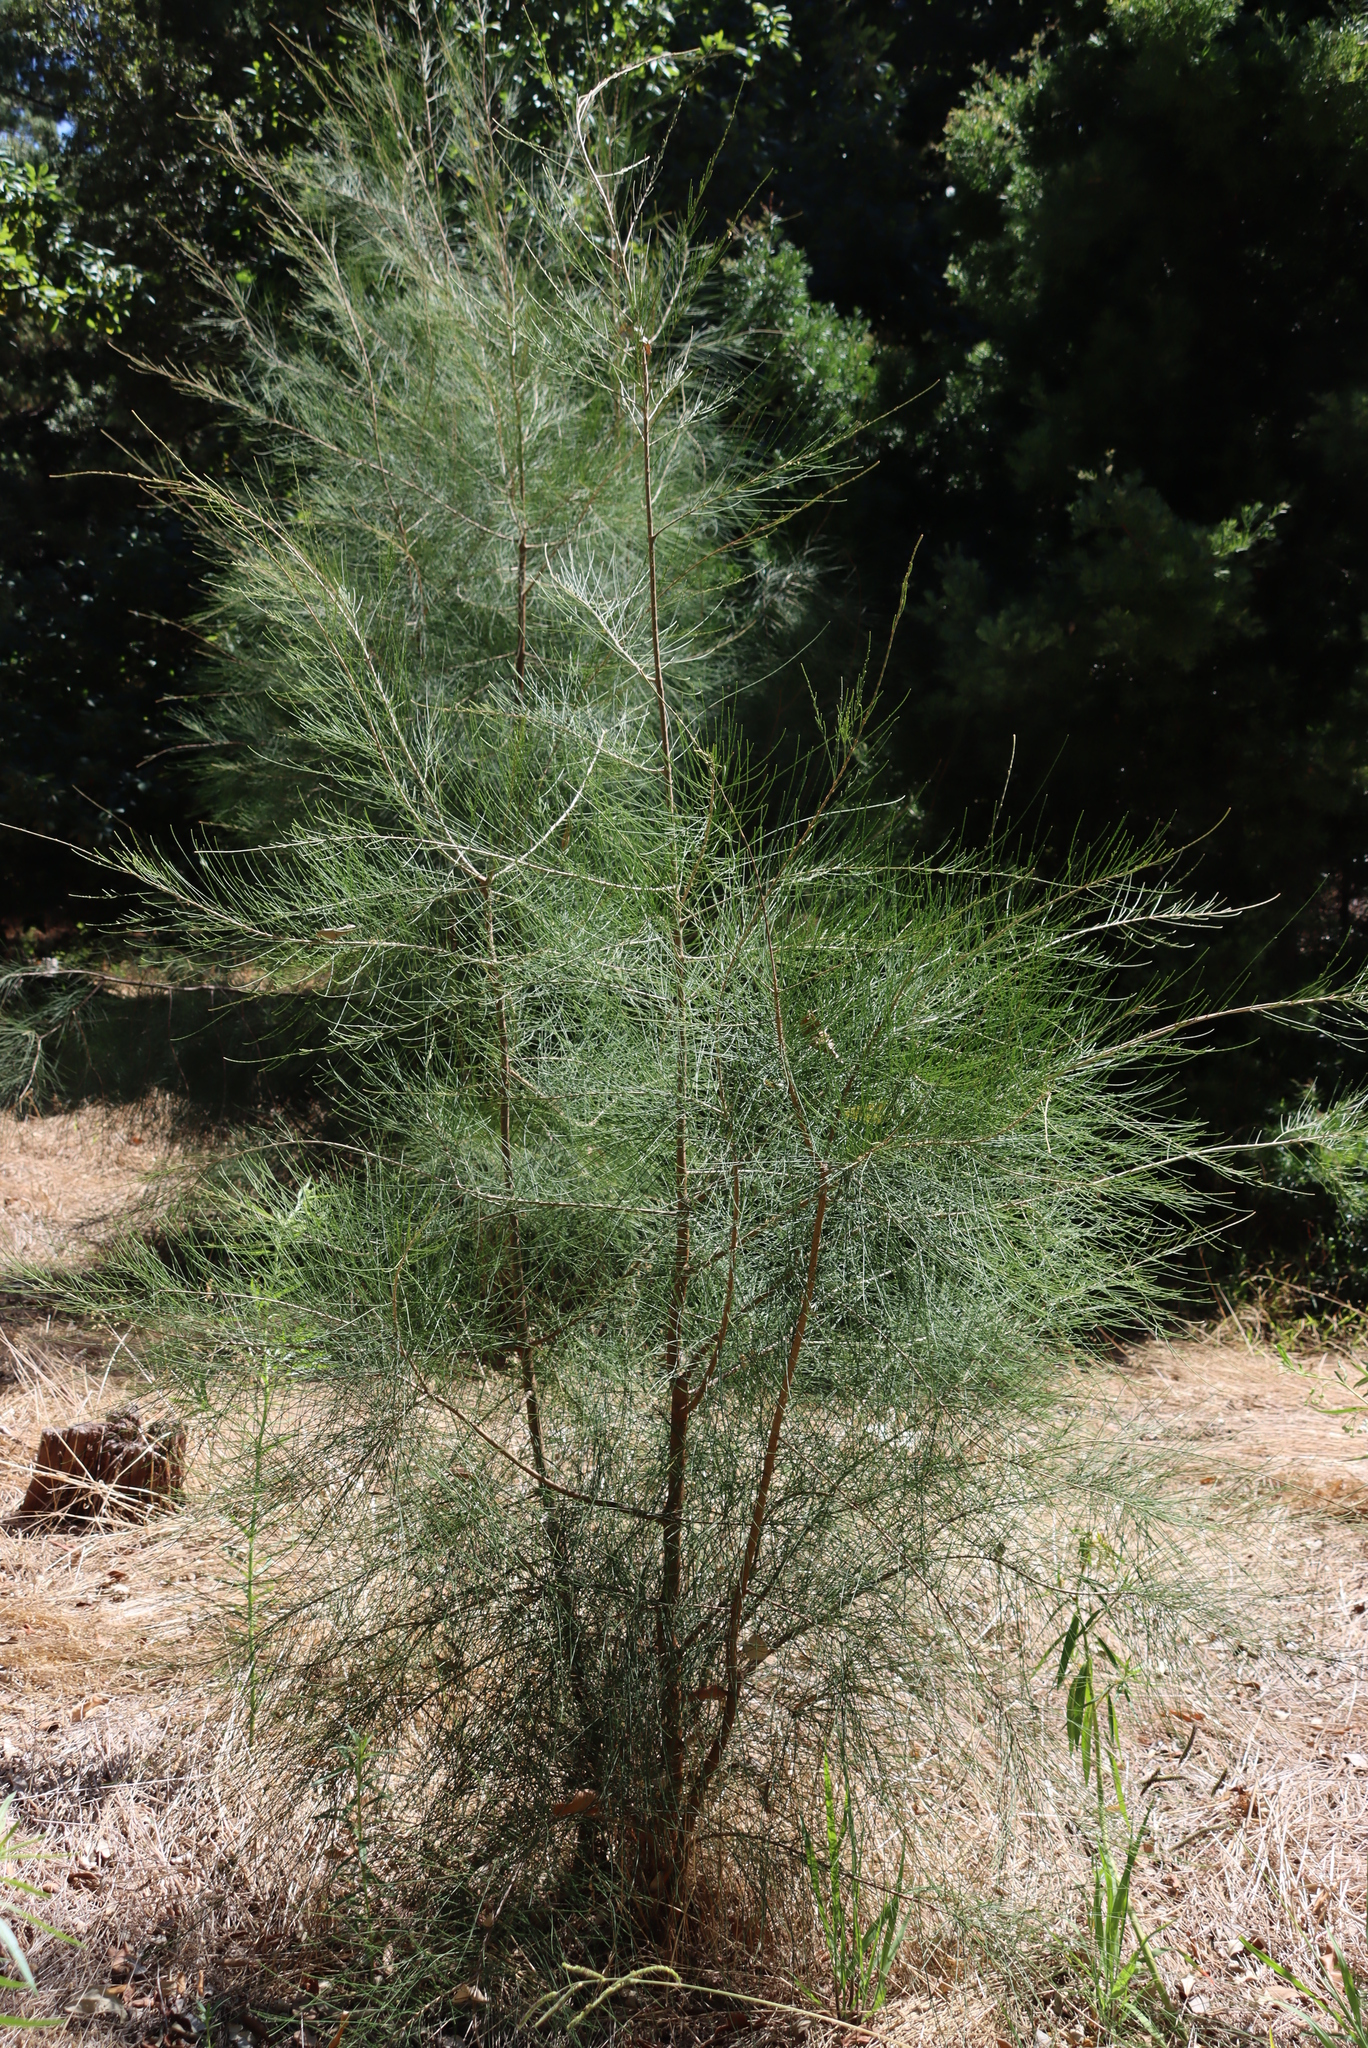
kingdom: Plantae
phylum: Tracheophyta
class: Magnoliopsida
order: Fagales
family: Casuarinaceae
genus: Casuarina
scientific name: Casuarina cunninghamiana
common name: River sheoak
